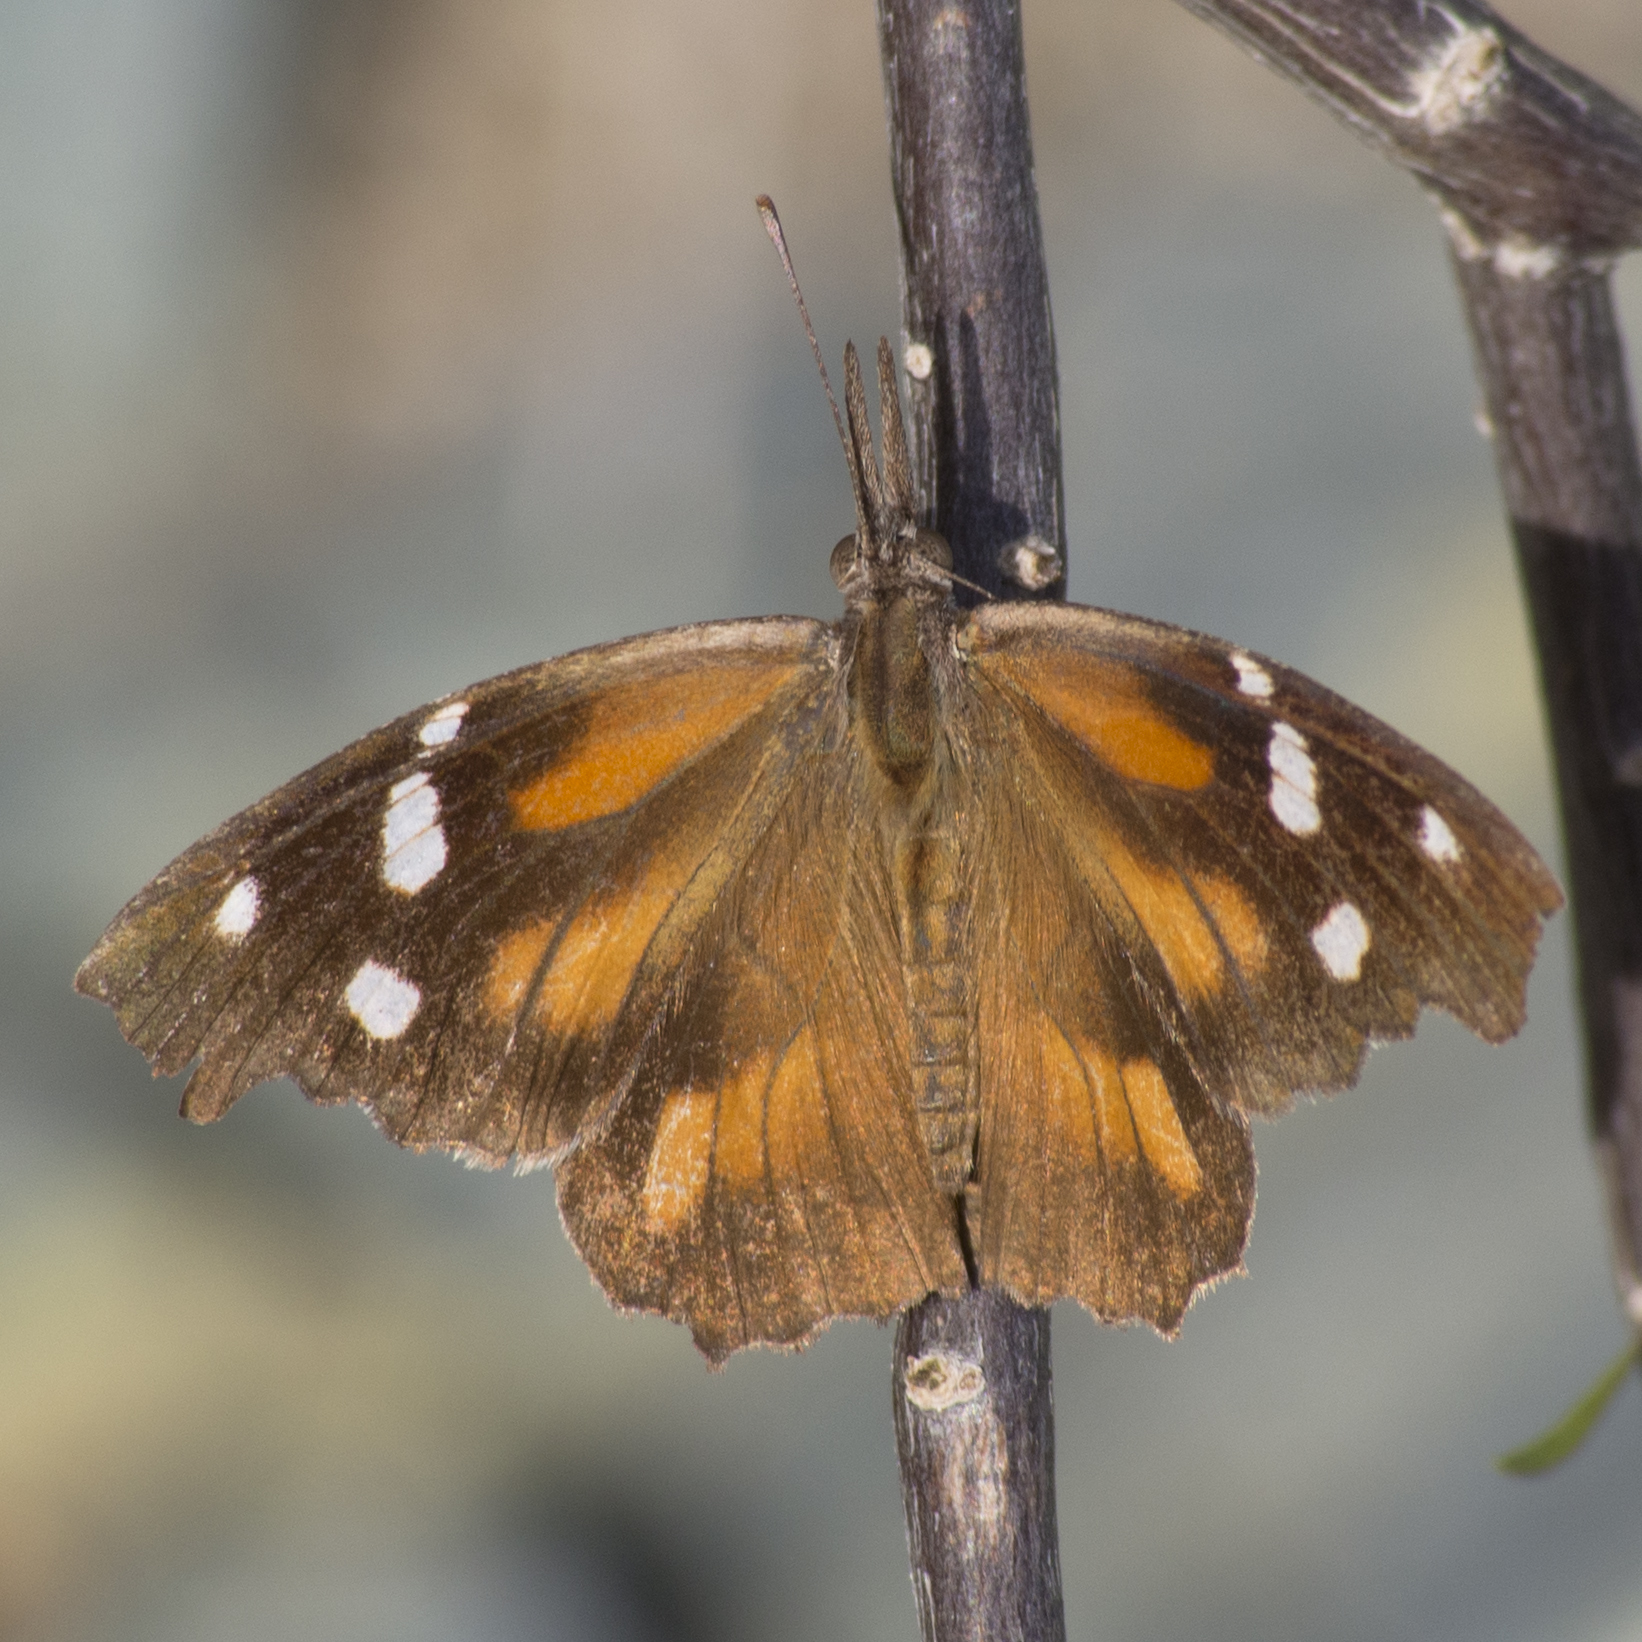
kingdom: Animalia
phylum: Arthropoda
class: Insecta
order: Lepidoptera
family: Nymphalidae
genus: Libytheana
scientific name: Libytheana carinenta
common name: American snout
